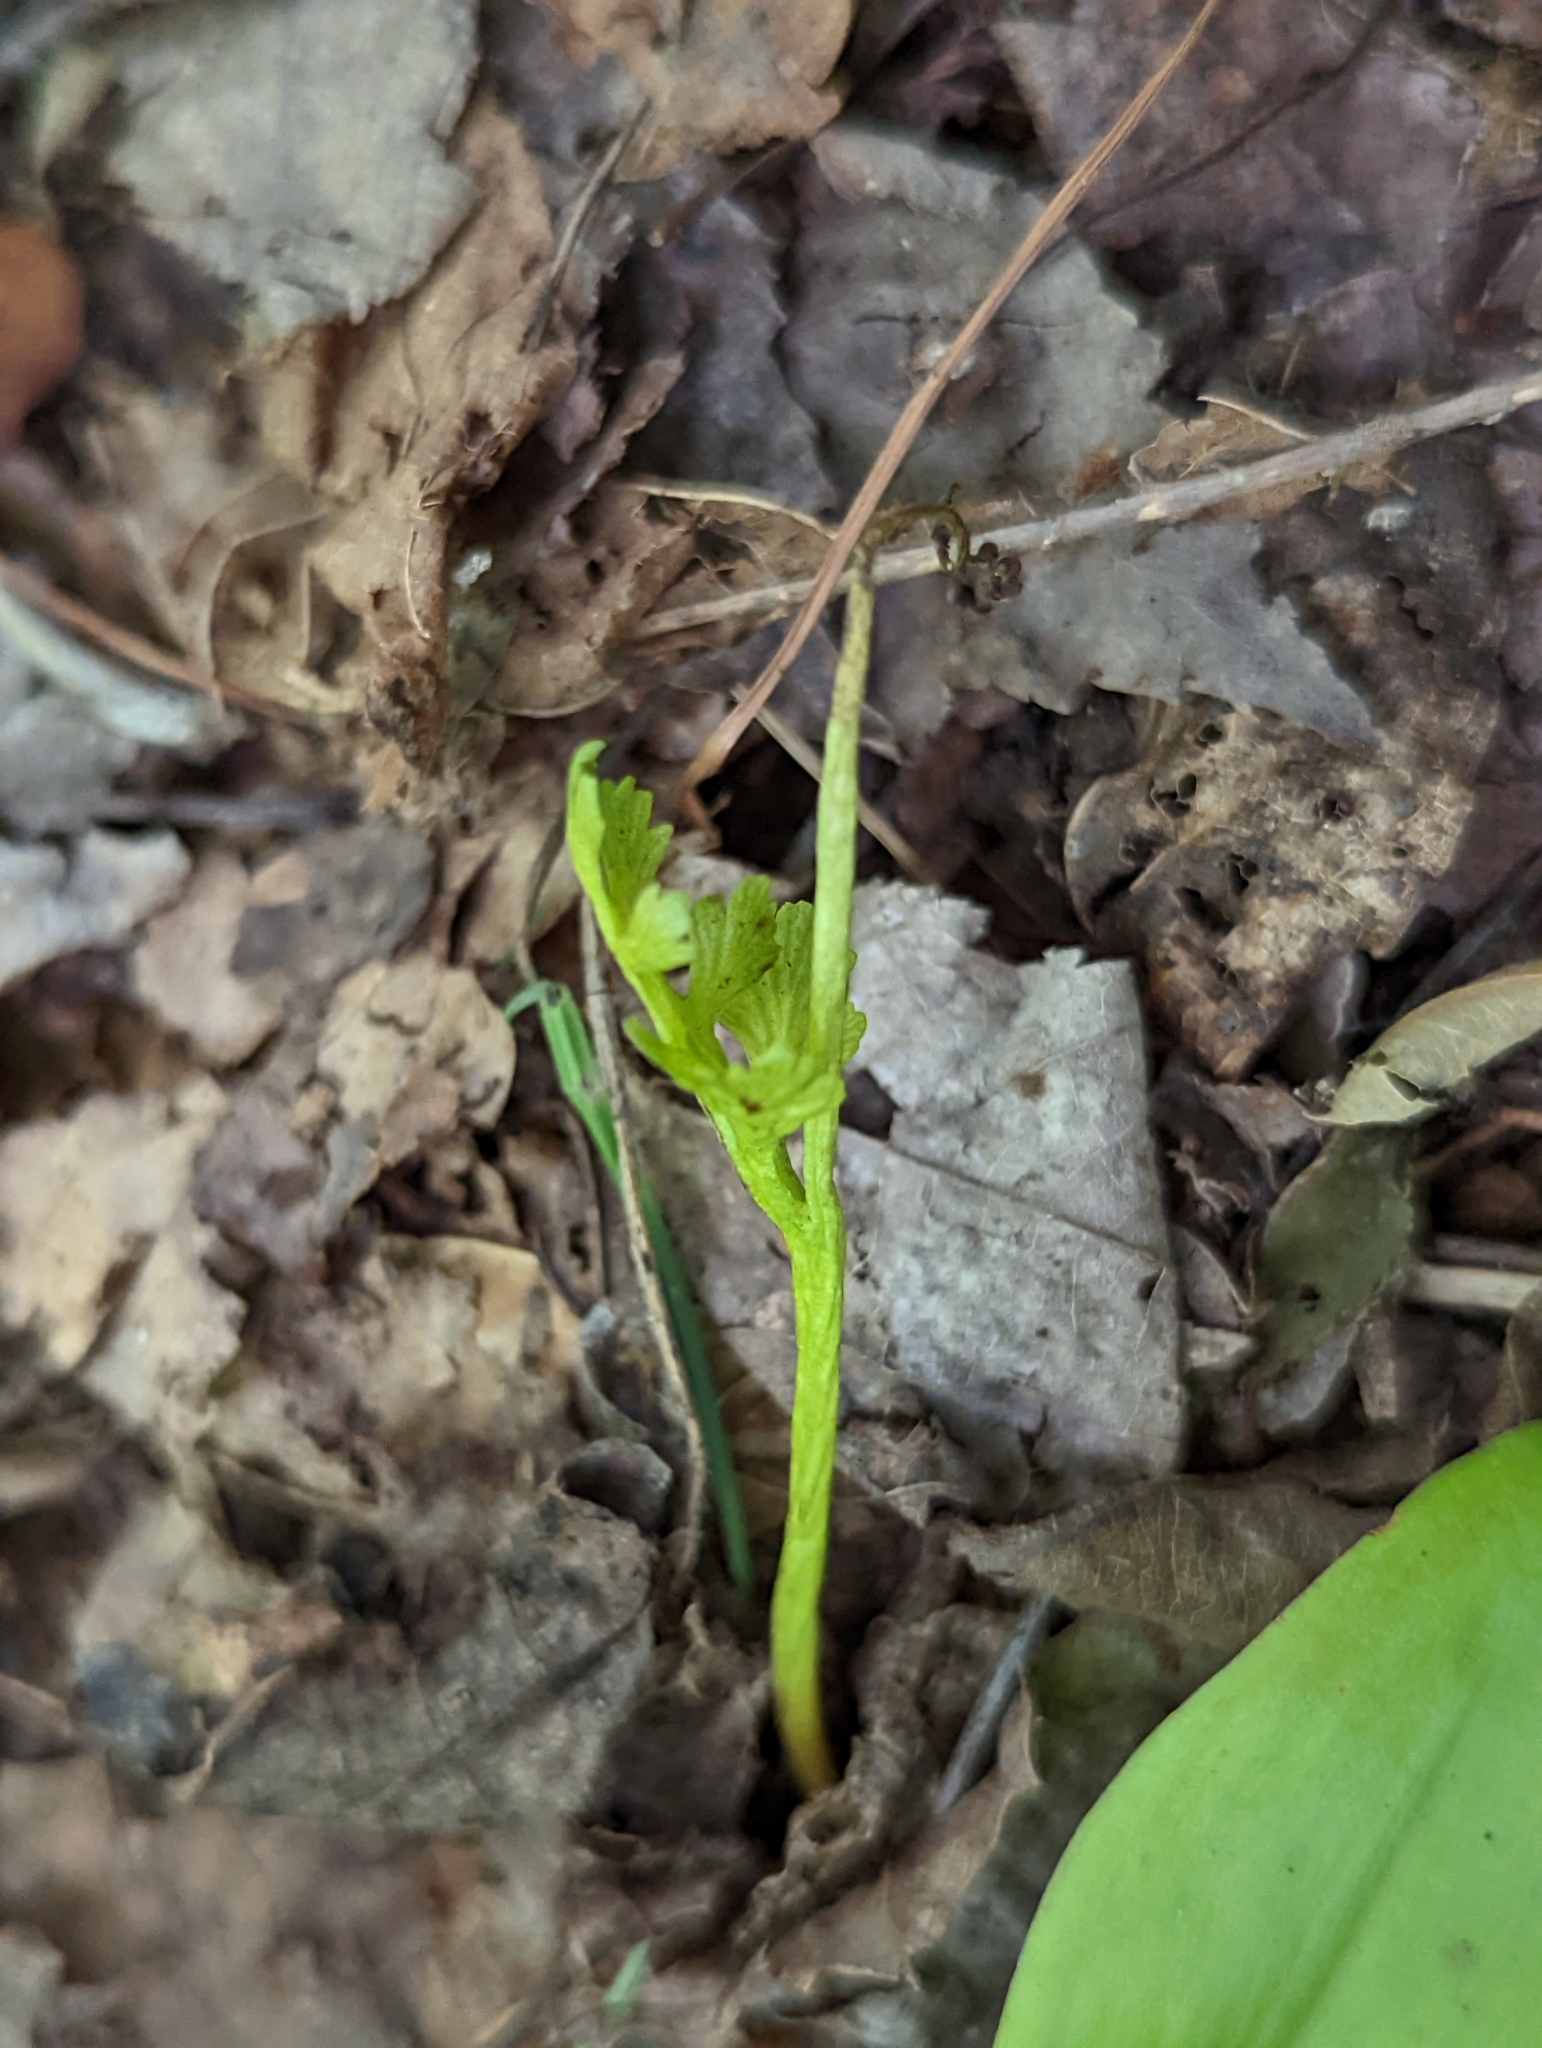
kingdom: Plantae
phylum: Tracheophyta
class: Polypodiopsida
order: Ophioglossales
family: Ophioglossaceae
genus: Botrychium
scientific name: Botrychium matricariifolium
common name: Branched moonwort
